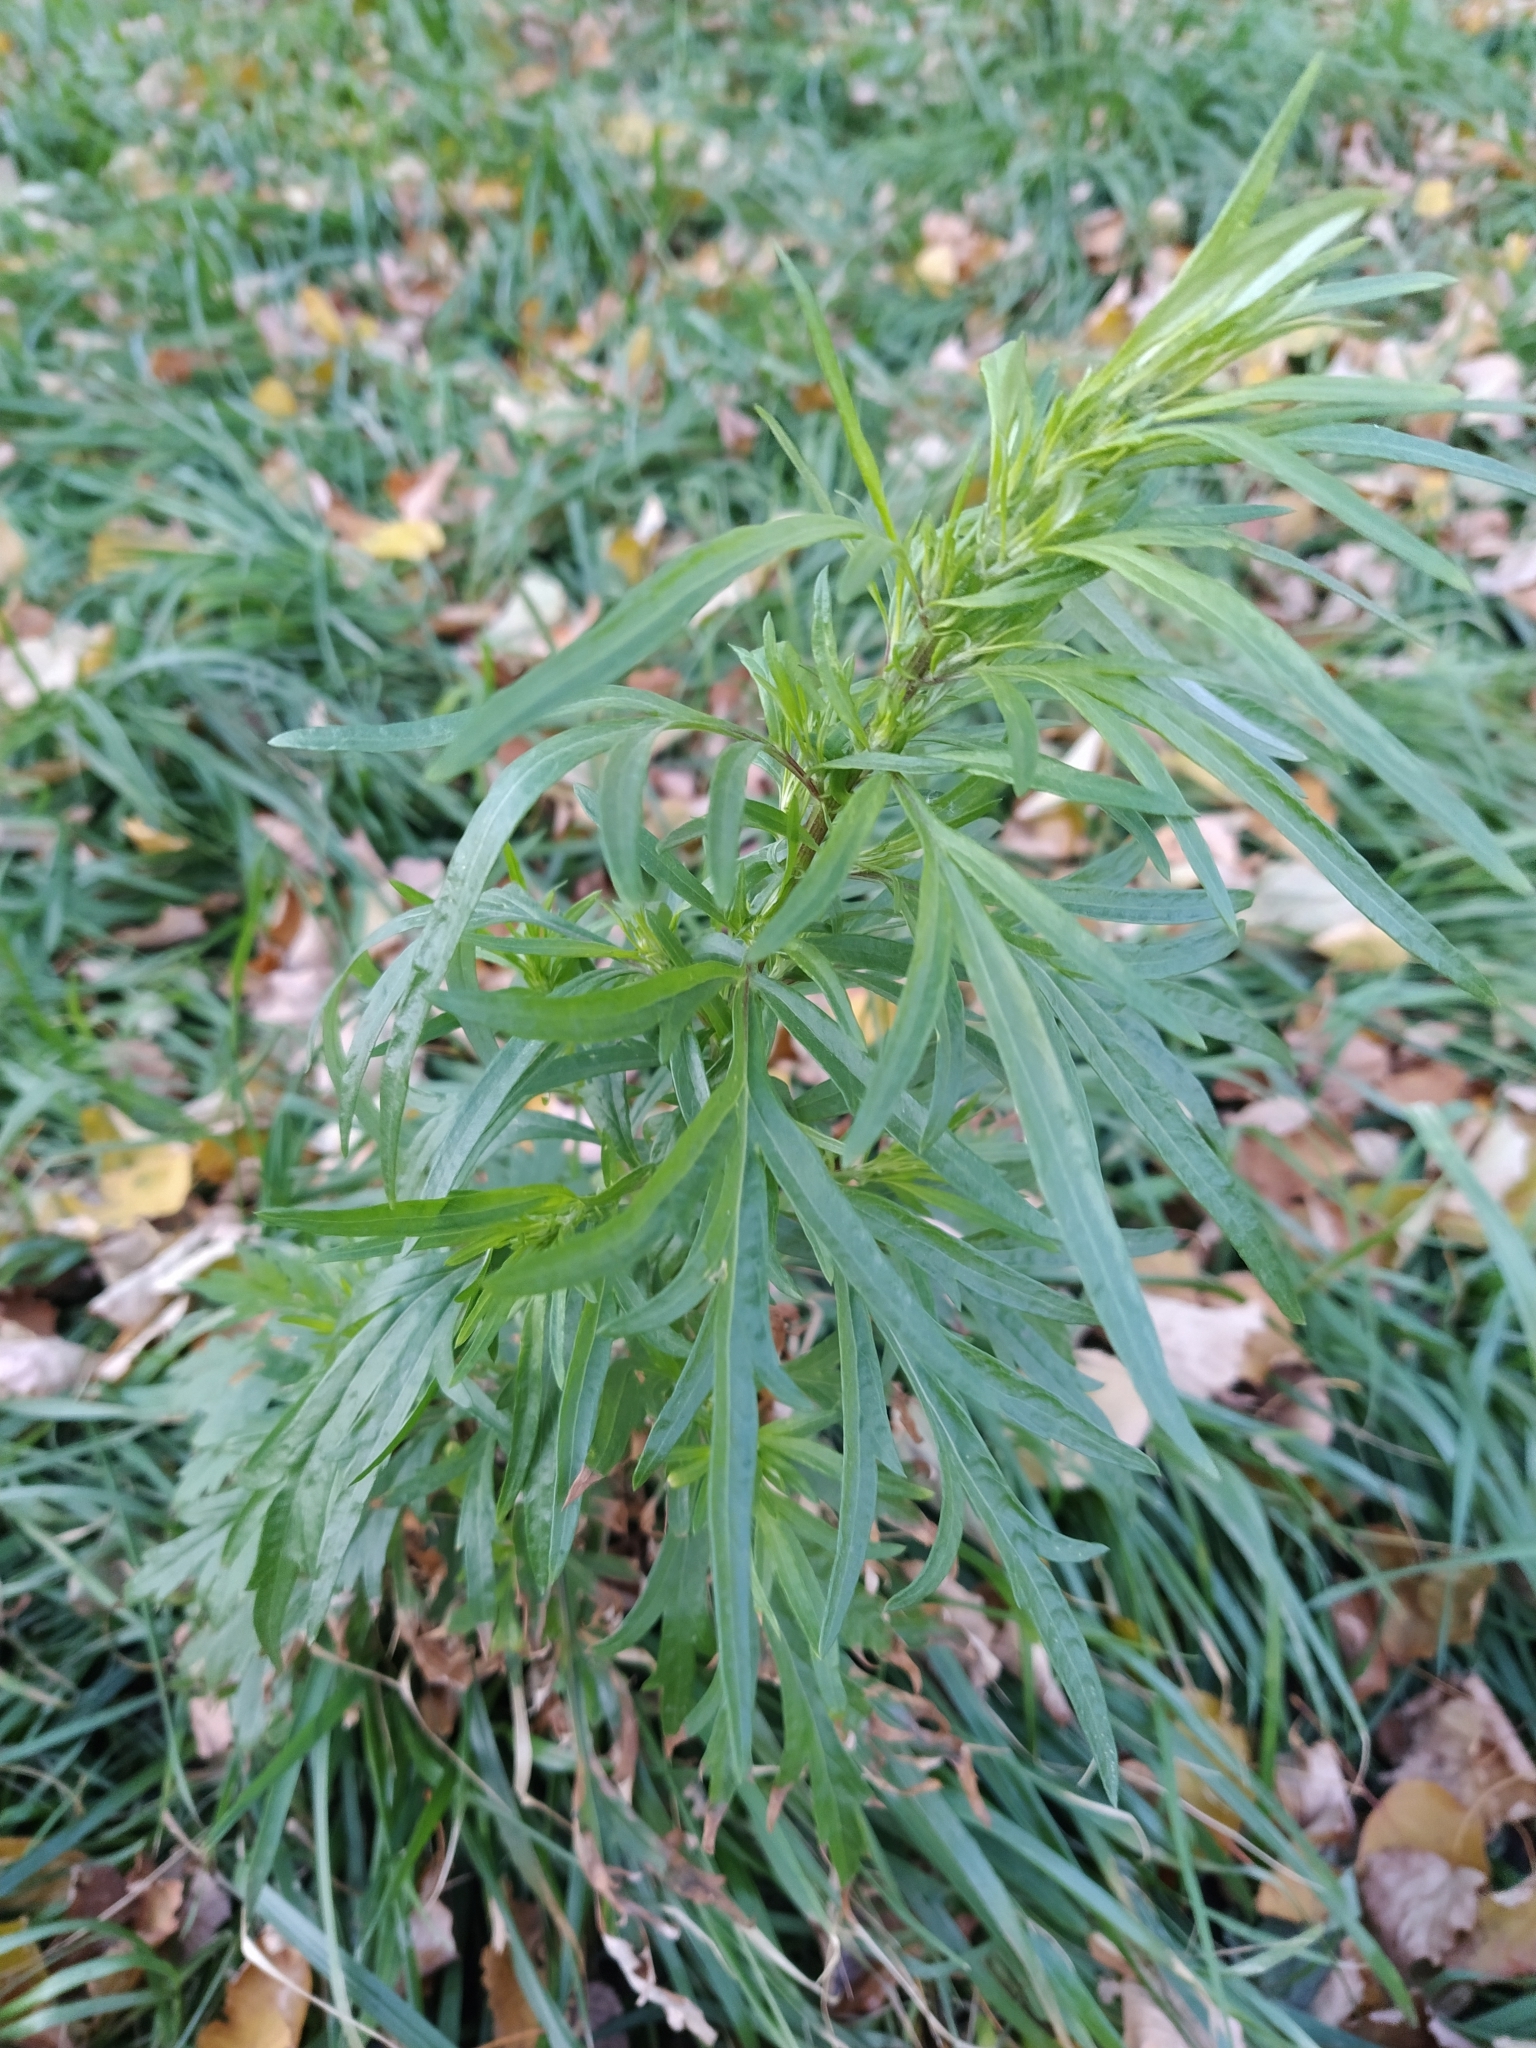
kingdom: Plantae
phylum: Tracheophyta
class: Magnoliopsida
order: Asterales
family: Asteraceae
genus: Artemisia
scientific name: Artemisia vulgaris
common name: Mugwort
